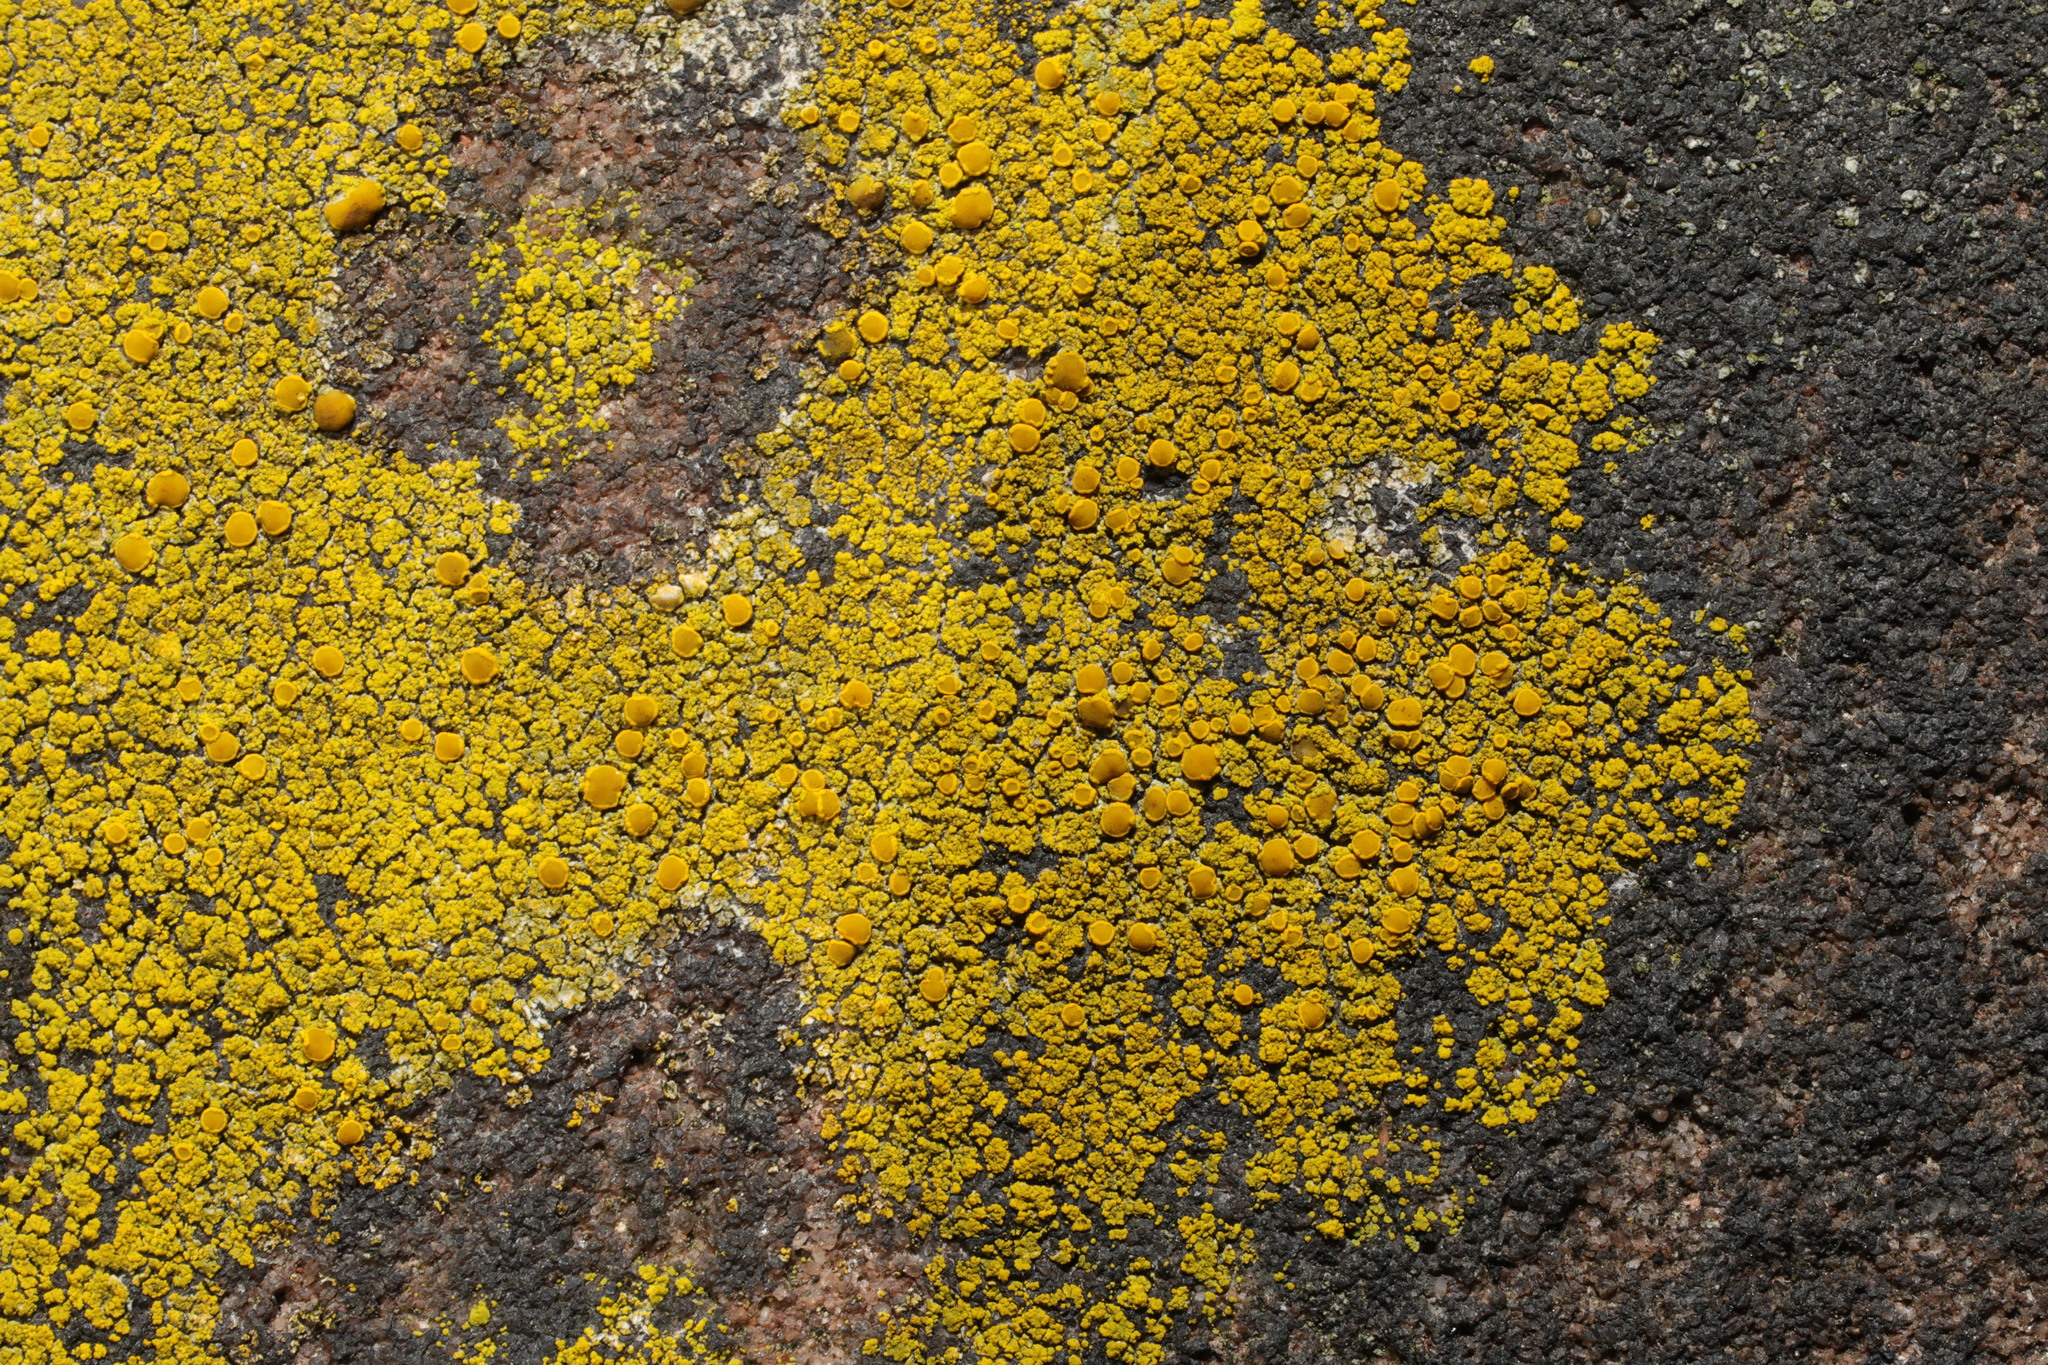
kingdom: Fungi
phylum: Ascomycota
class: Candelariomycetes
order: Candelariales
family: Candelariaceae
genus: Candelariella
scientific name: Candelariella vitellina
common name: Common goldspeck
